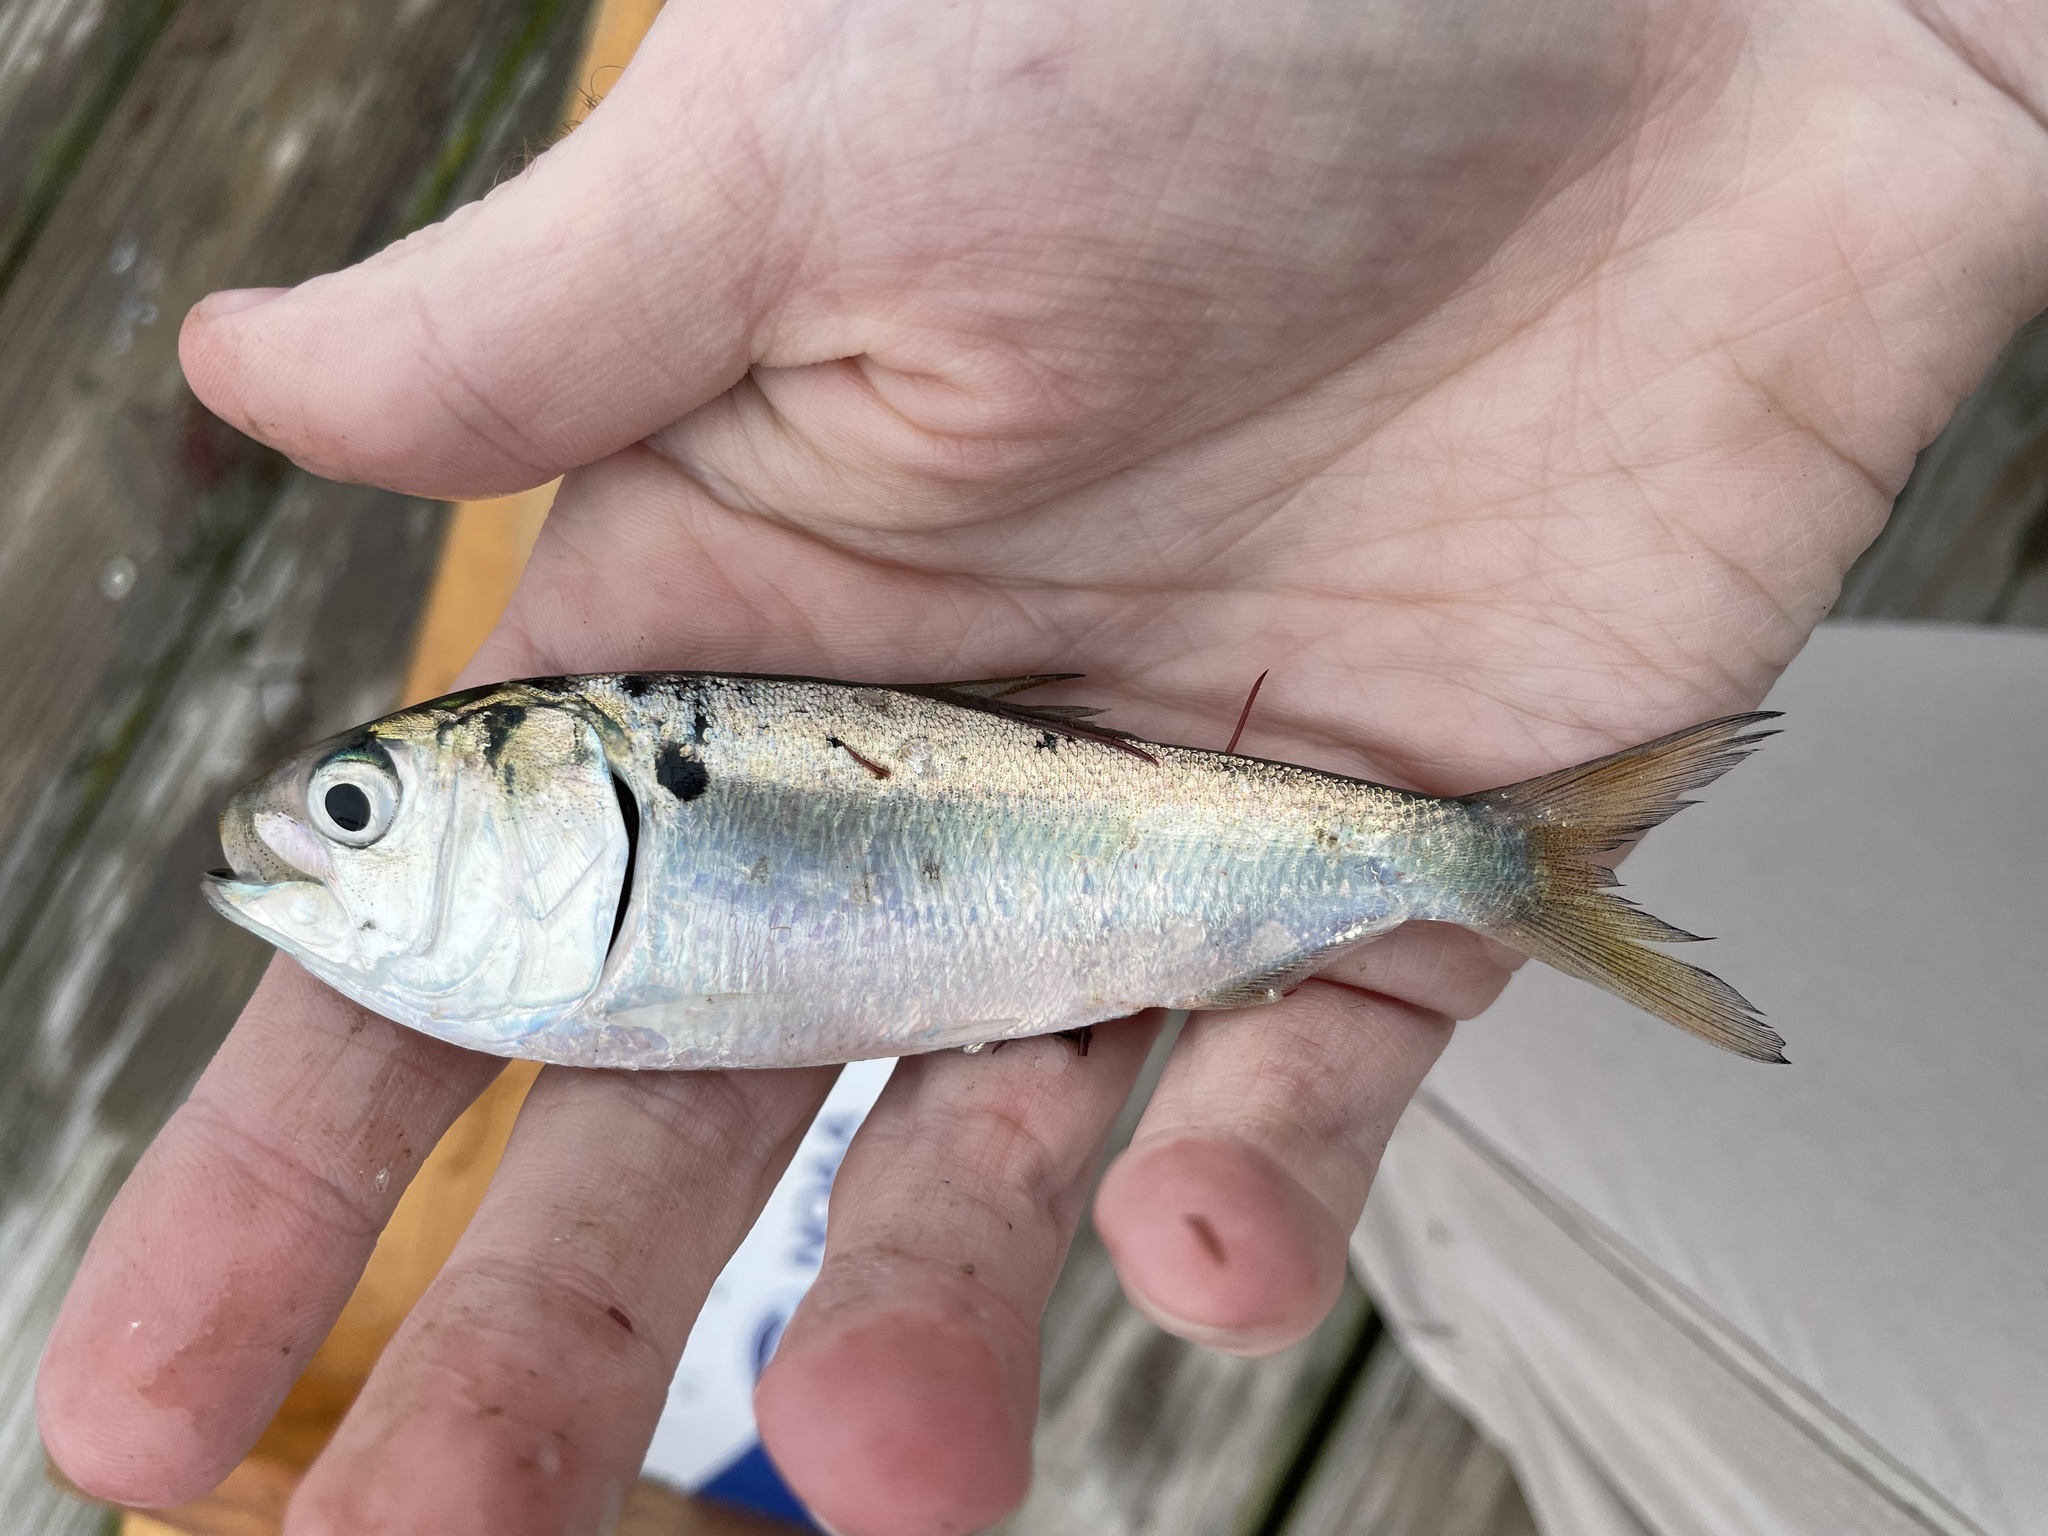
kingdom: Animalia
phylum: Chordata
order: Clupeiformes
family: Clupeidae
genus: Brevoortia
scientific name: Brevoortia tyrannus
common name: Atlantic menhaden
